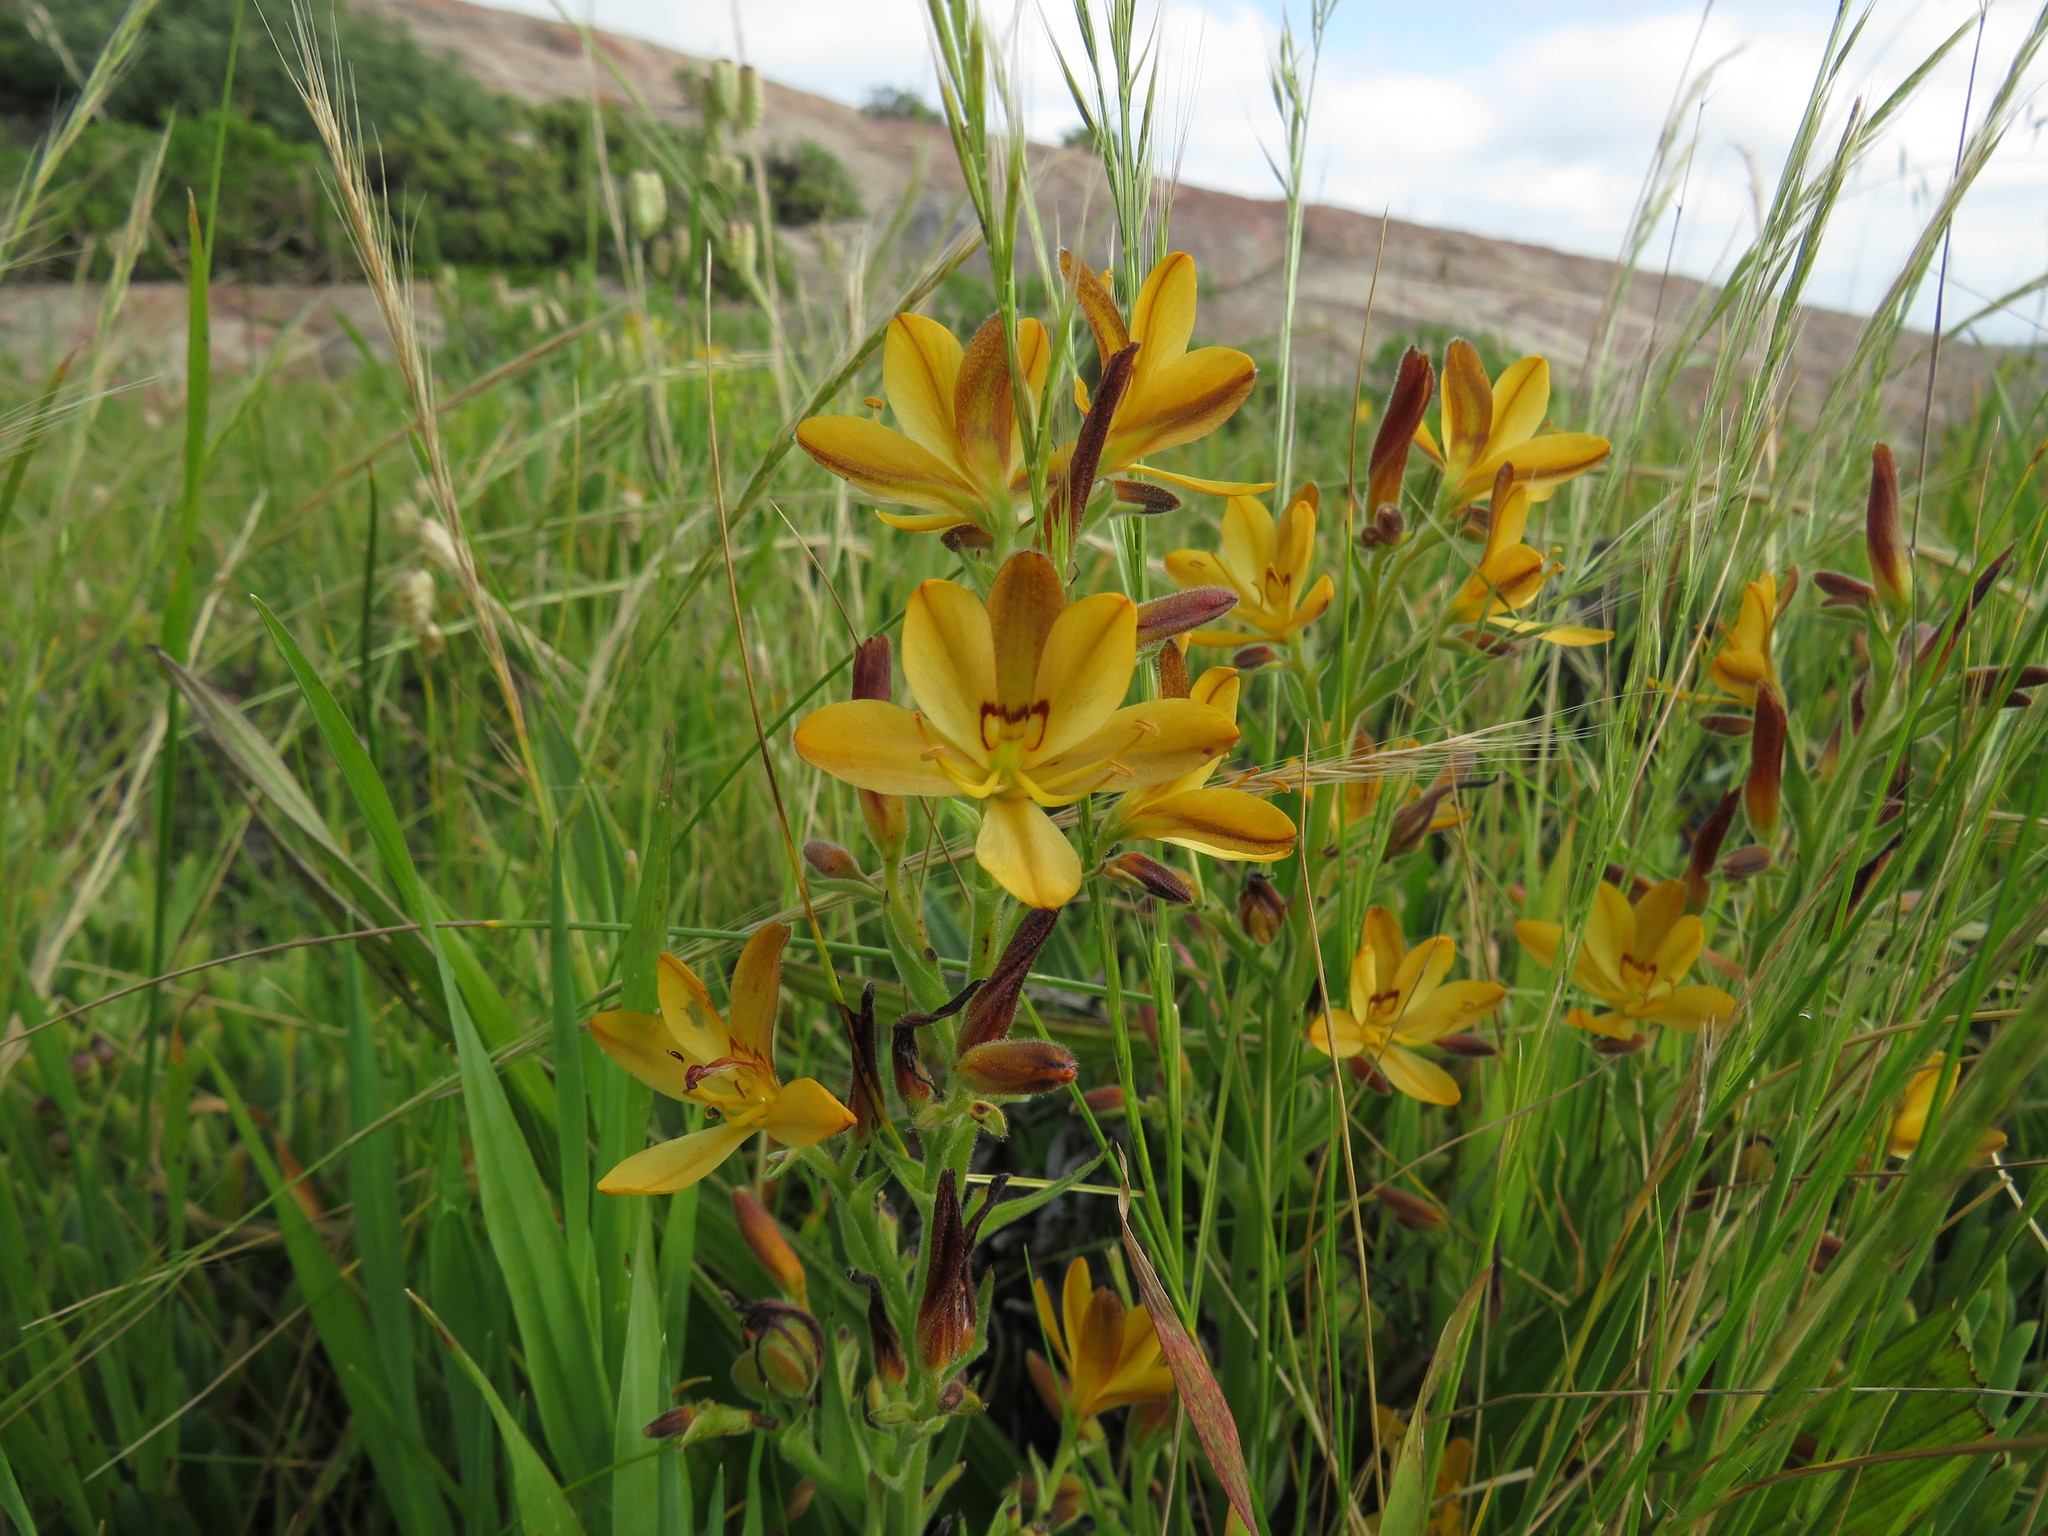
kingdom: Plantae
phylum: Tracheophyta
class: Liliopsida
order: Commelinales
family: Haemodoraceae
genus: Wachendorfia
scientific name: Wachendorfia multiflora
